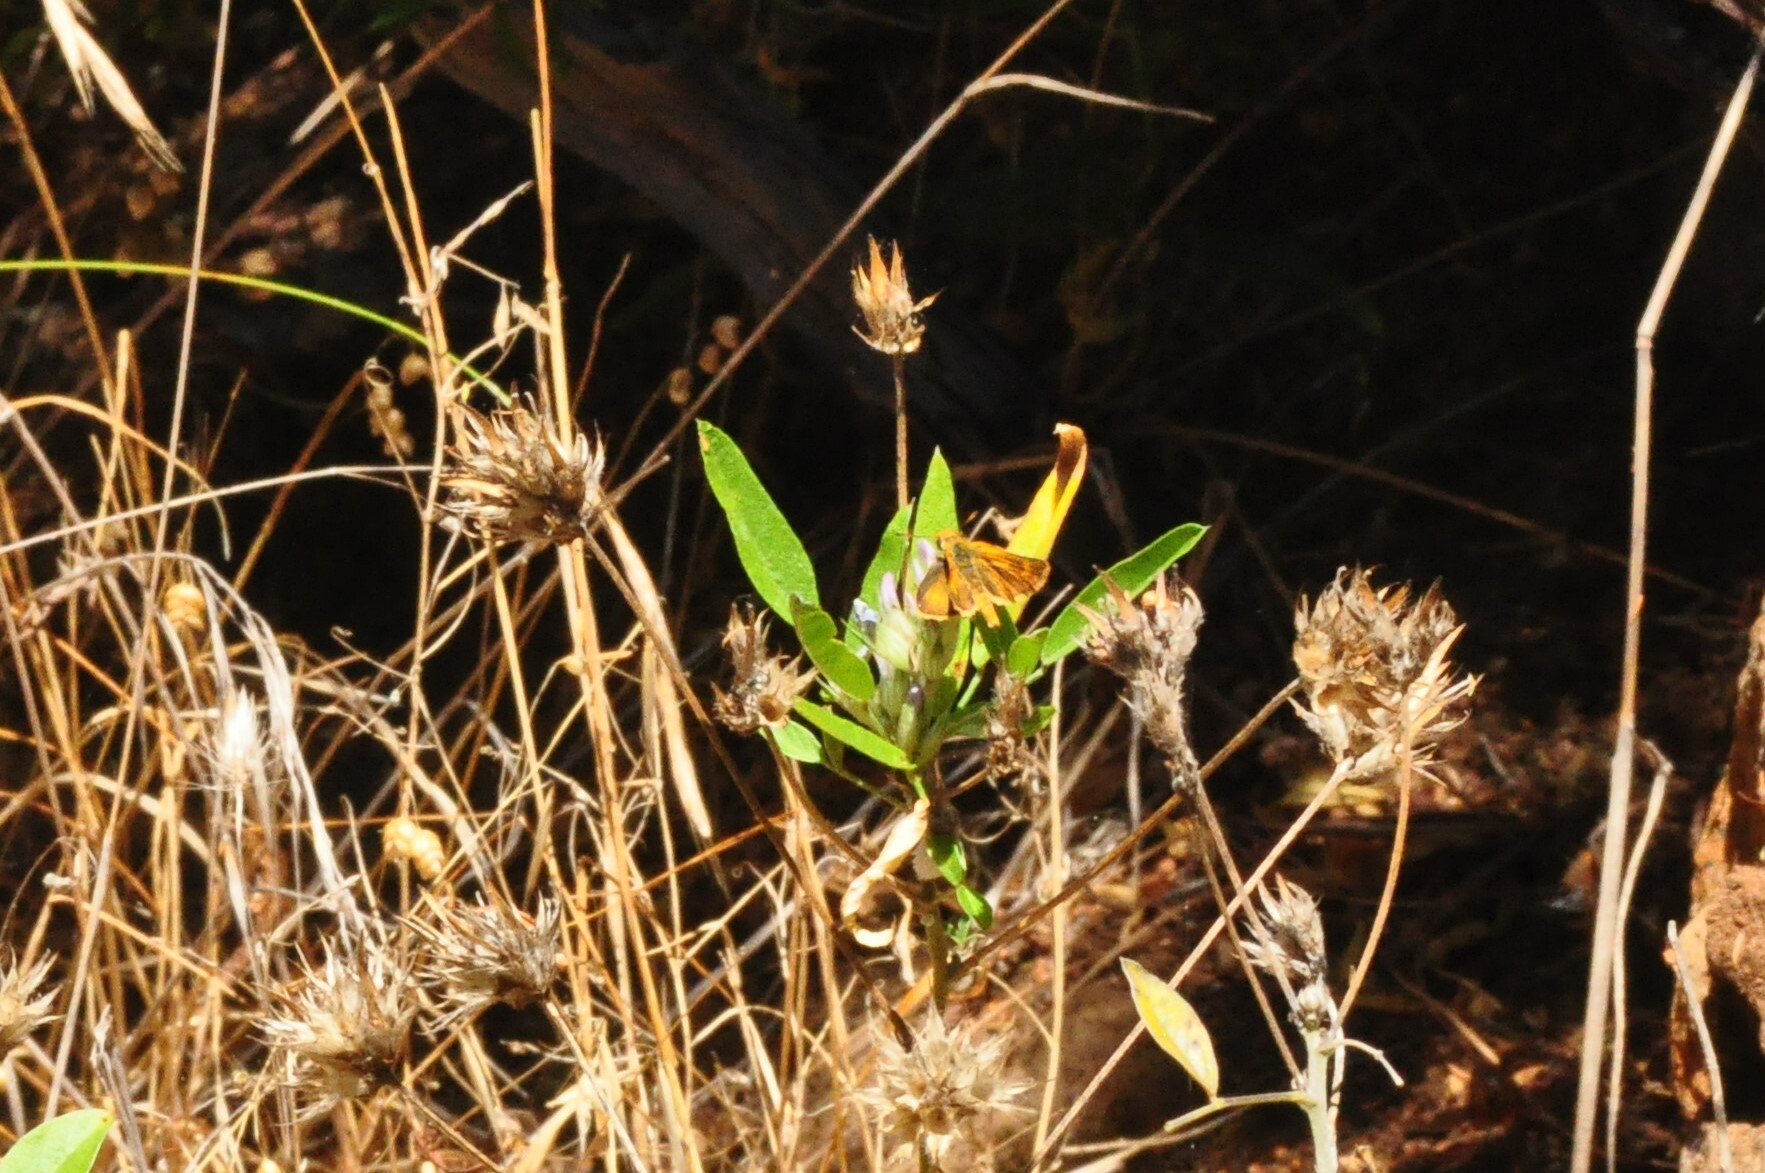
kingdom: Animalia
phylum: Arthropoda
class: Insecta
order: Lepidoptera
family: Hesperiidae
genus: Thymelicus
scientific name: Thymelicus acteon
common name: Lulworth skipper
